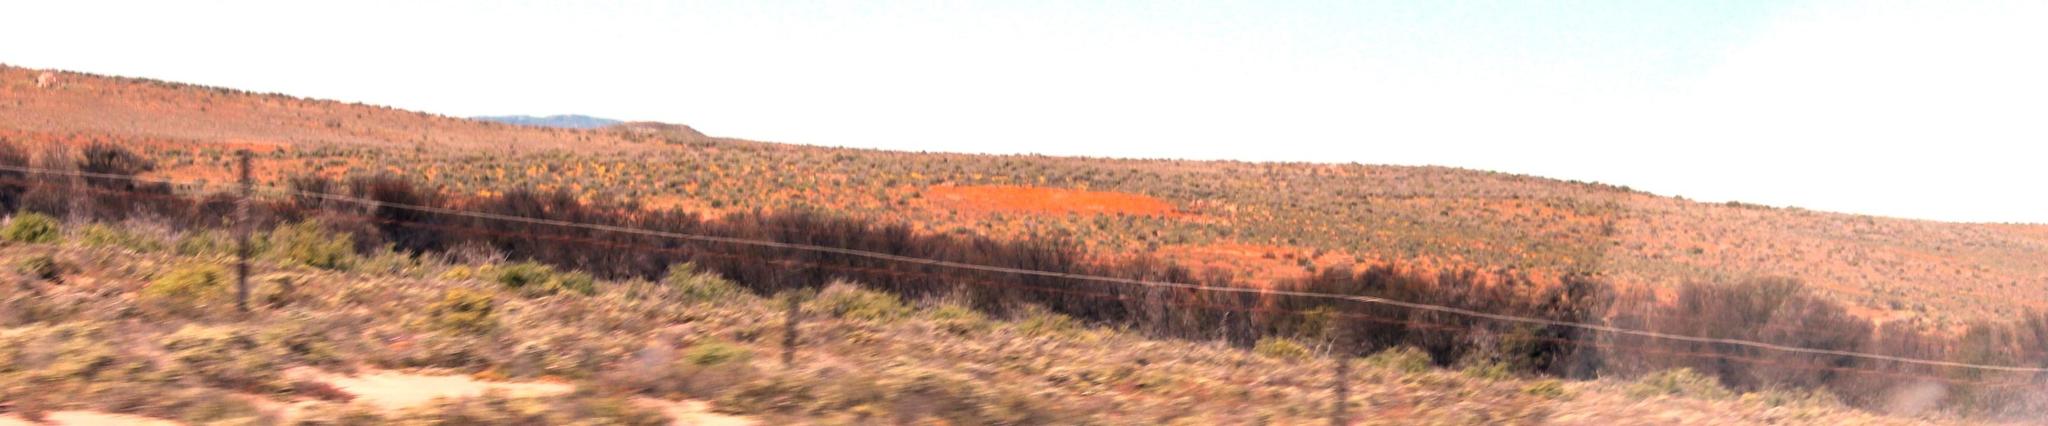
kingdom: Plantae
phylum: Tracheophyta
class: Magnoliopsida
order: Fabales
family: Fabaceae
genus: Vachellia
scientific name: Vachellia karroo
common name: Sweet thorn
